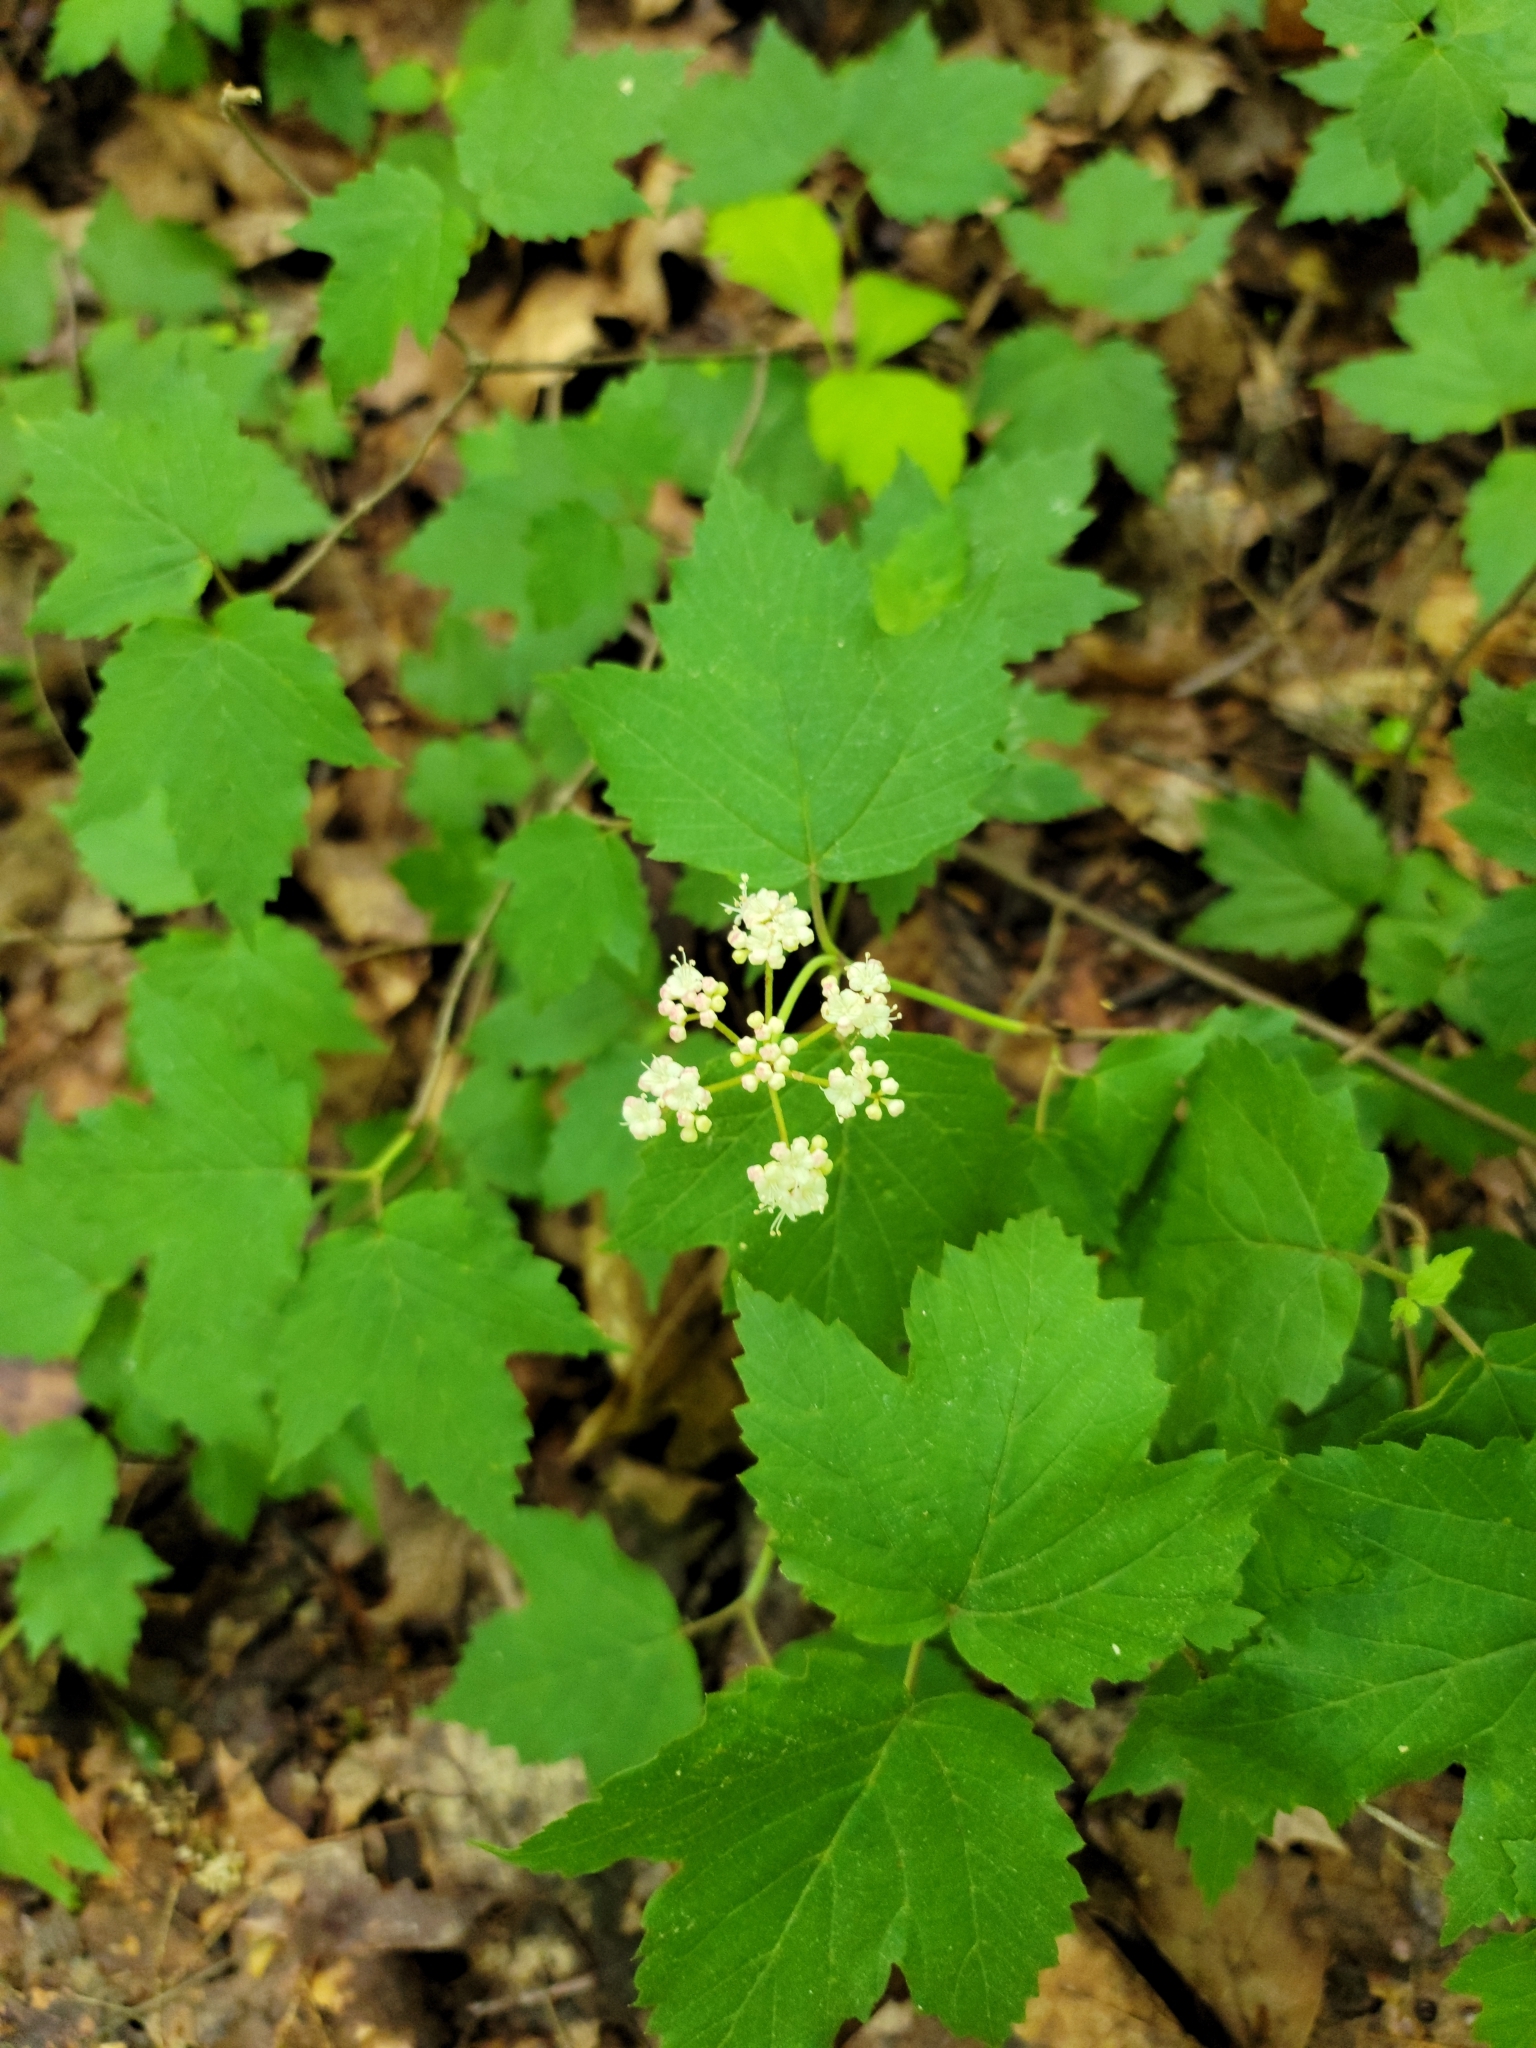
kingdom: Plantae
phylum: Tracheophyta
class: Magnoliopsida
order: Dipsacales
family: Viburnaceae
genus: Viburnum
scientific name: Viburnum acerifolium
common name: Dockmackie
